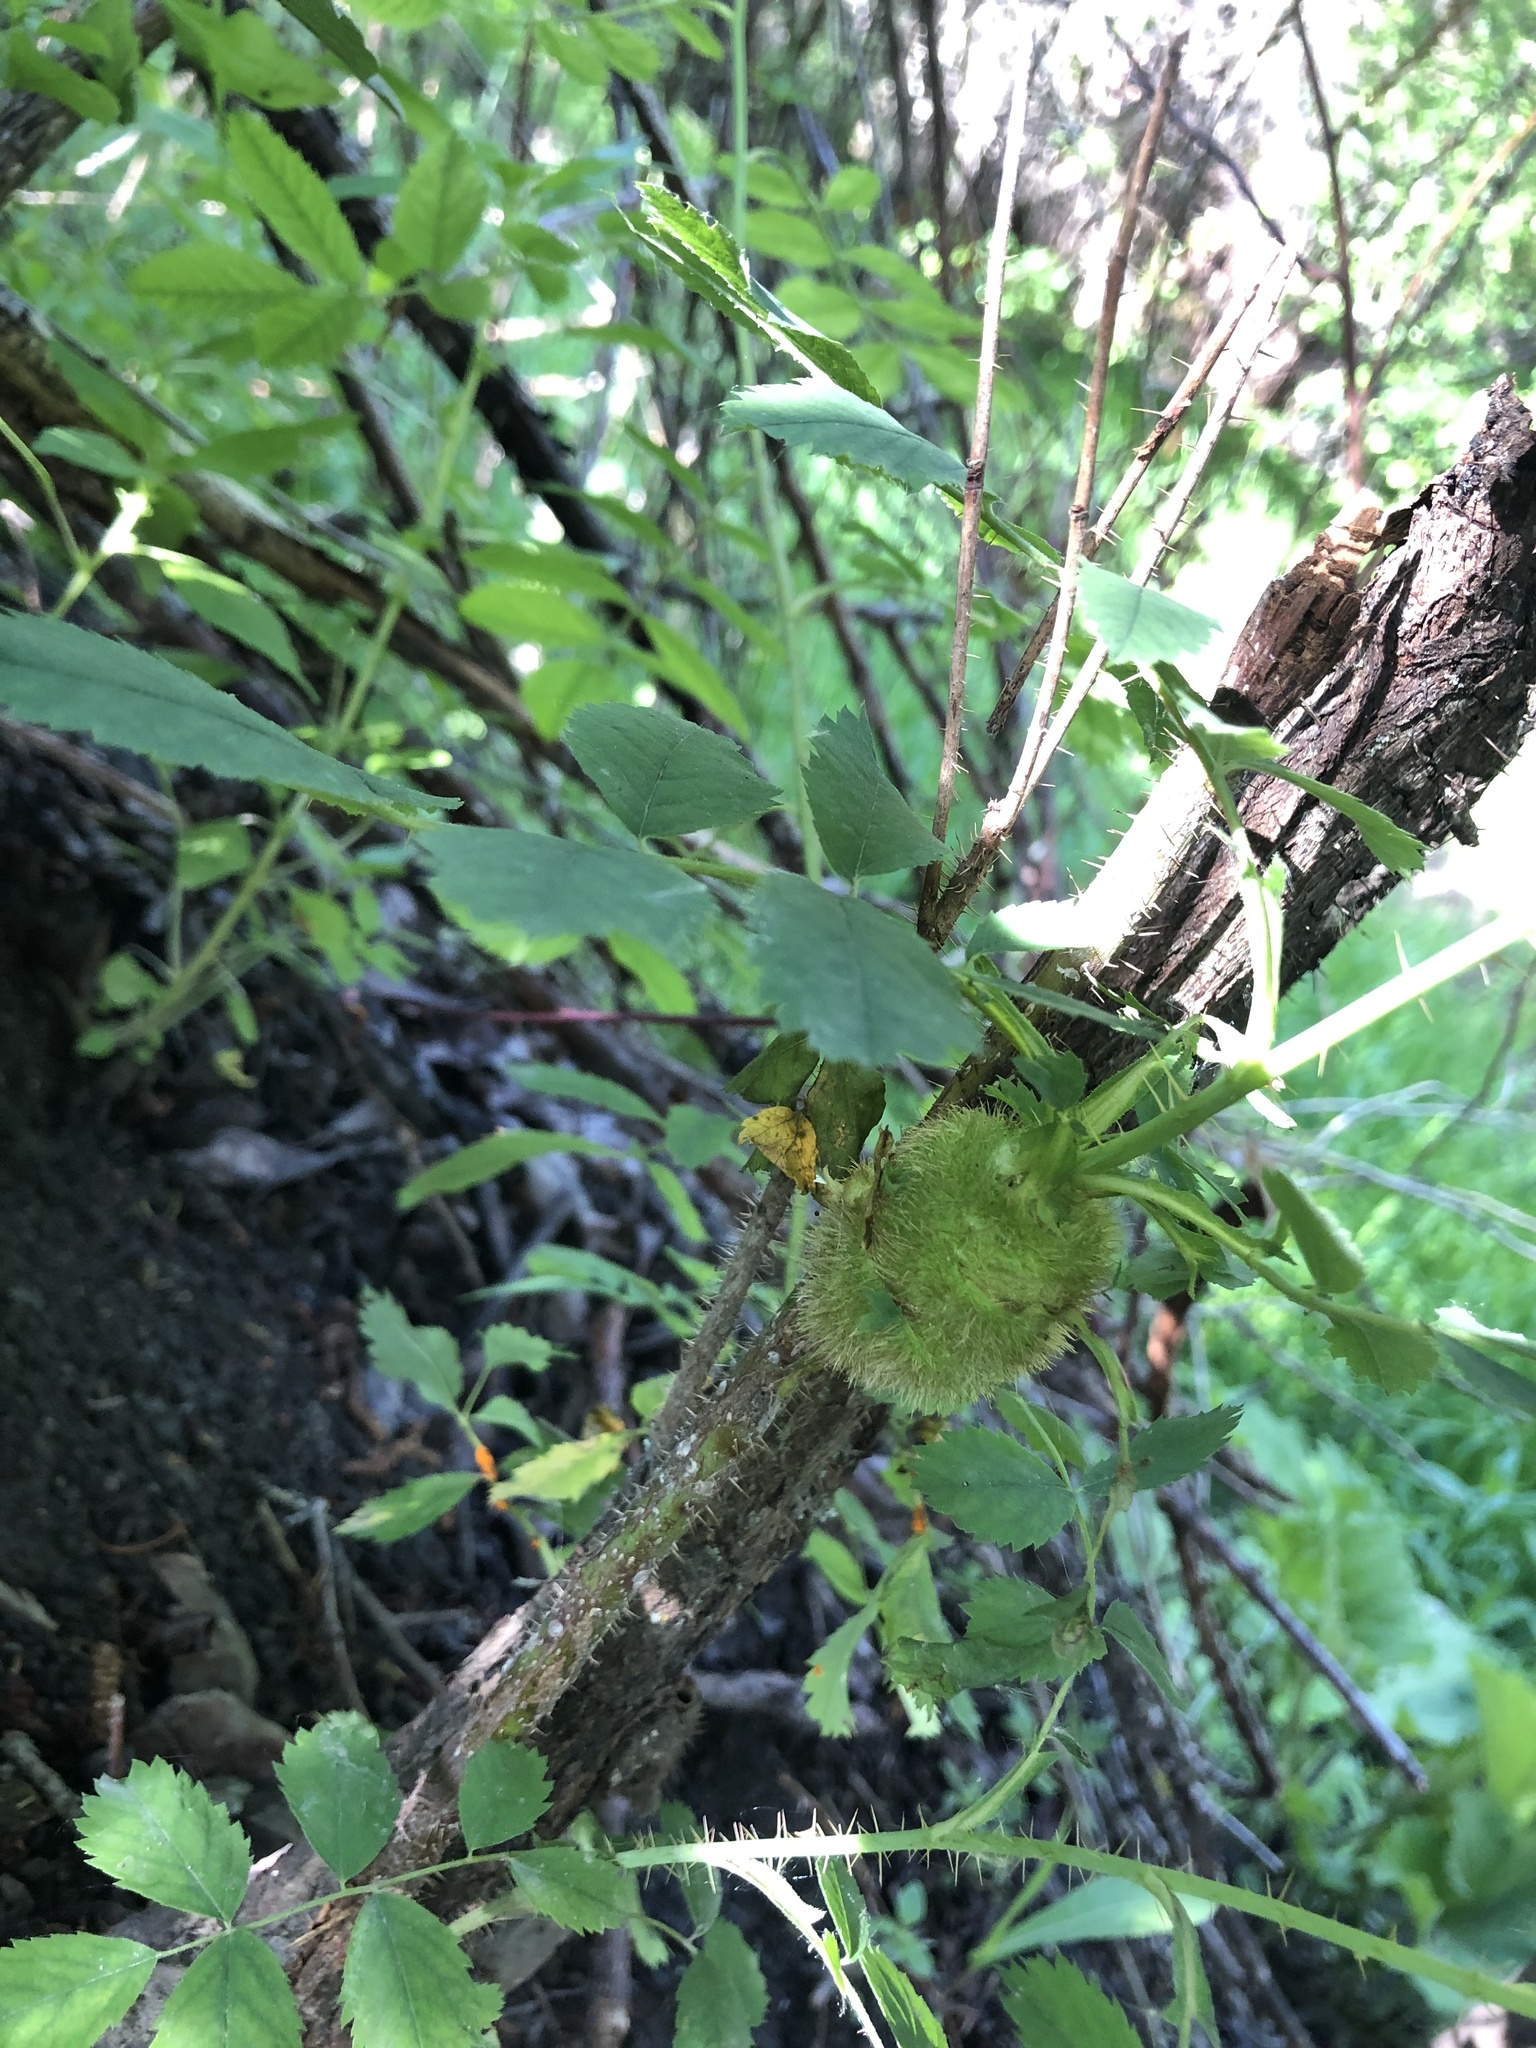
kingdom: Animalia
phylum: Arthropoda
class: Insecta
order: Hymenoptera
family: Cynipidae
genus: Diplolepis
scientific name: Diplolepis spinosa
